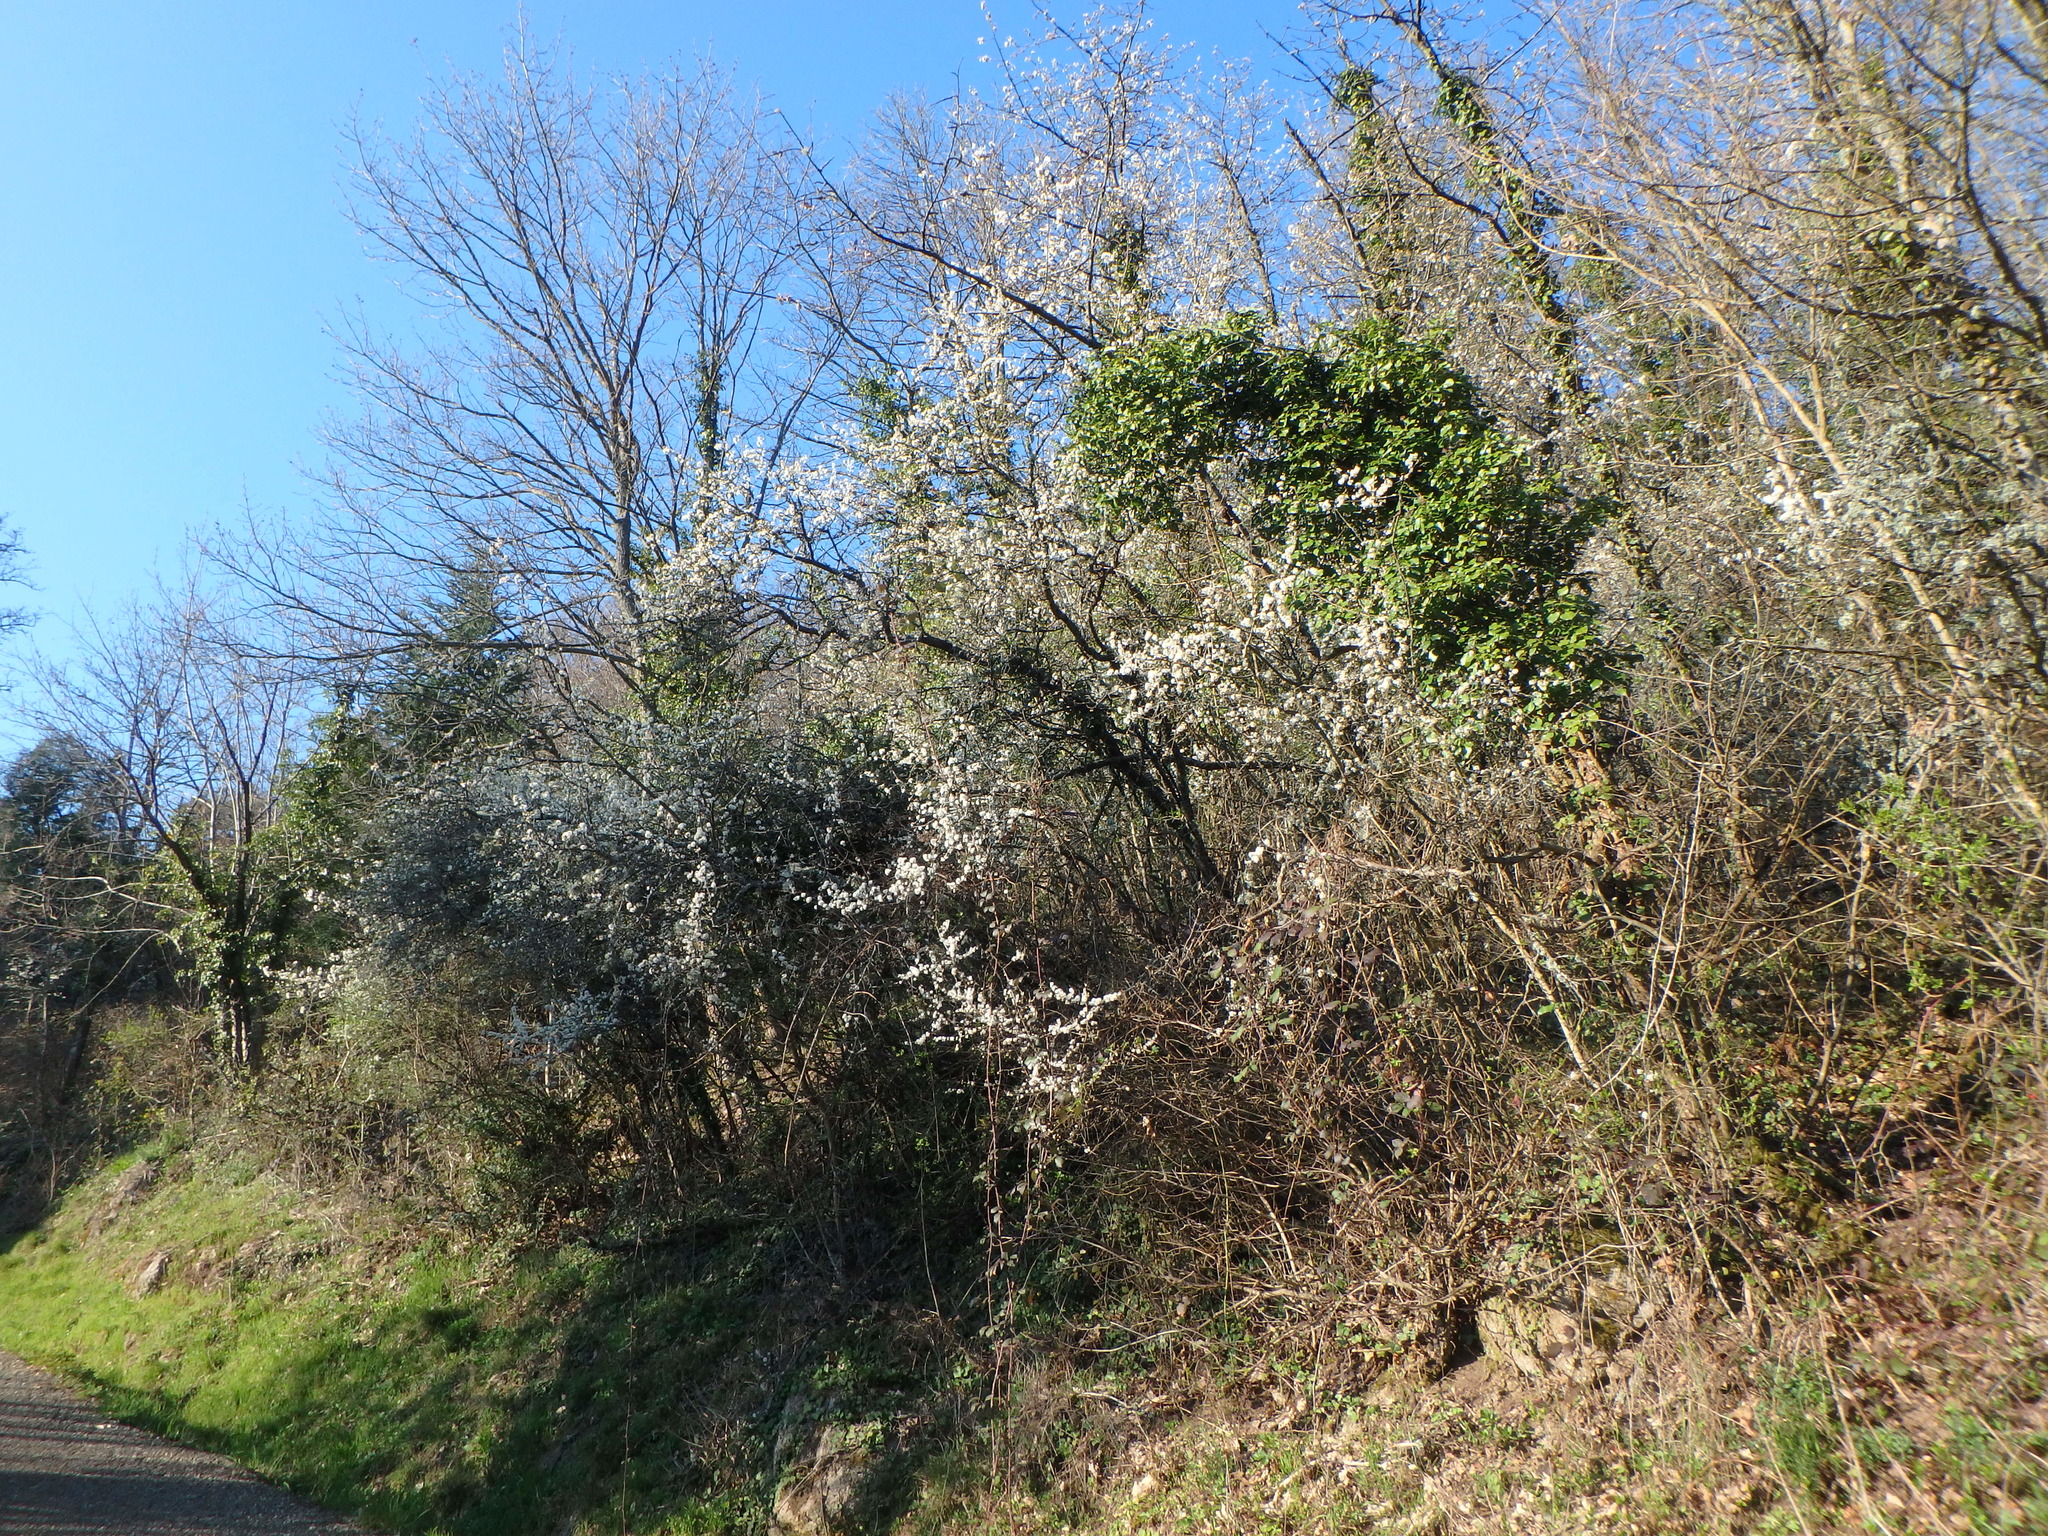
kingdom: Plantae
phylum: Tracheophyta
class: Magnoliopsida
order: Rosales
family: Rosaceae
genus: Prunus
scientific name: Prunus spinosa
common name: Blackthorn
